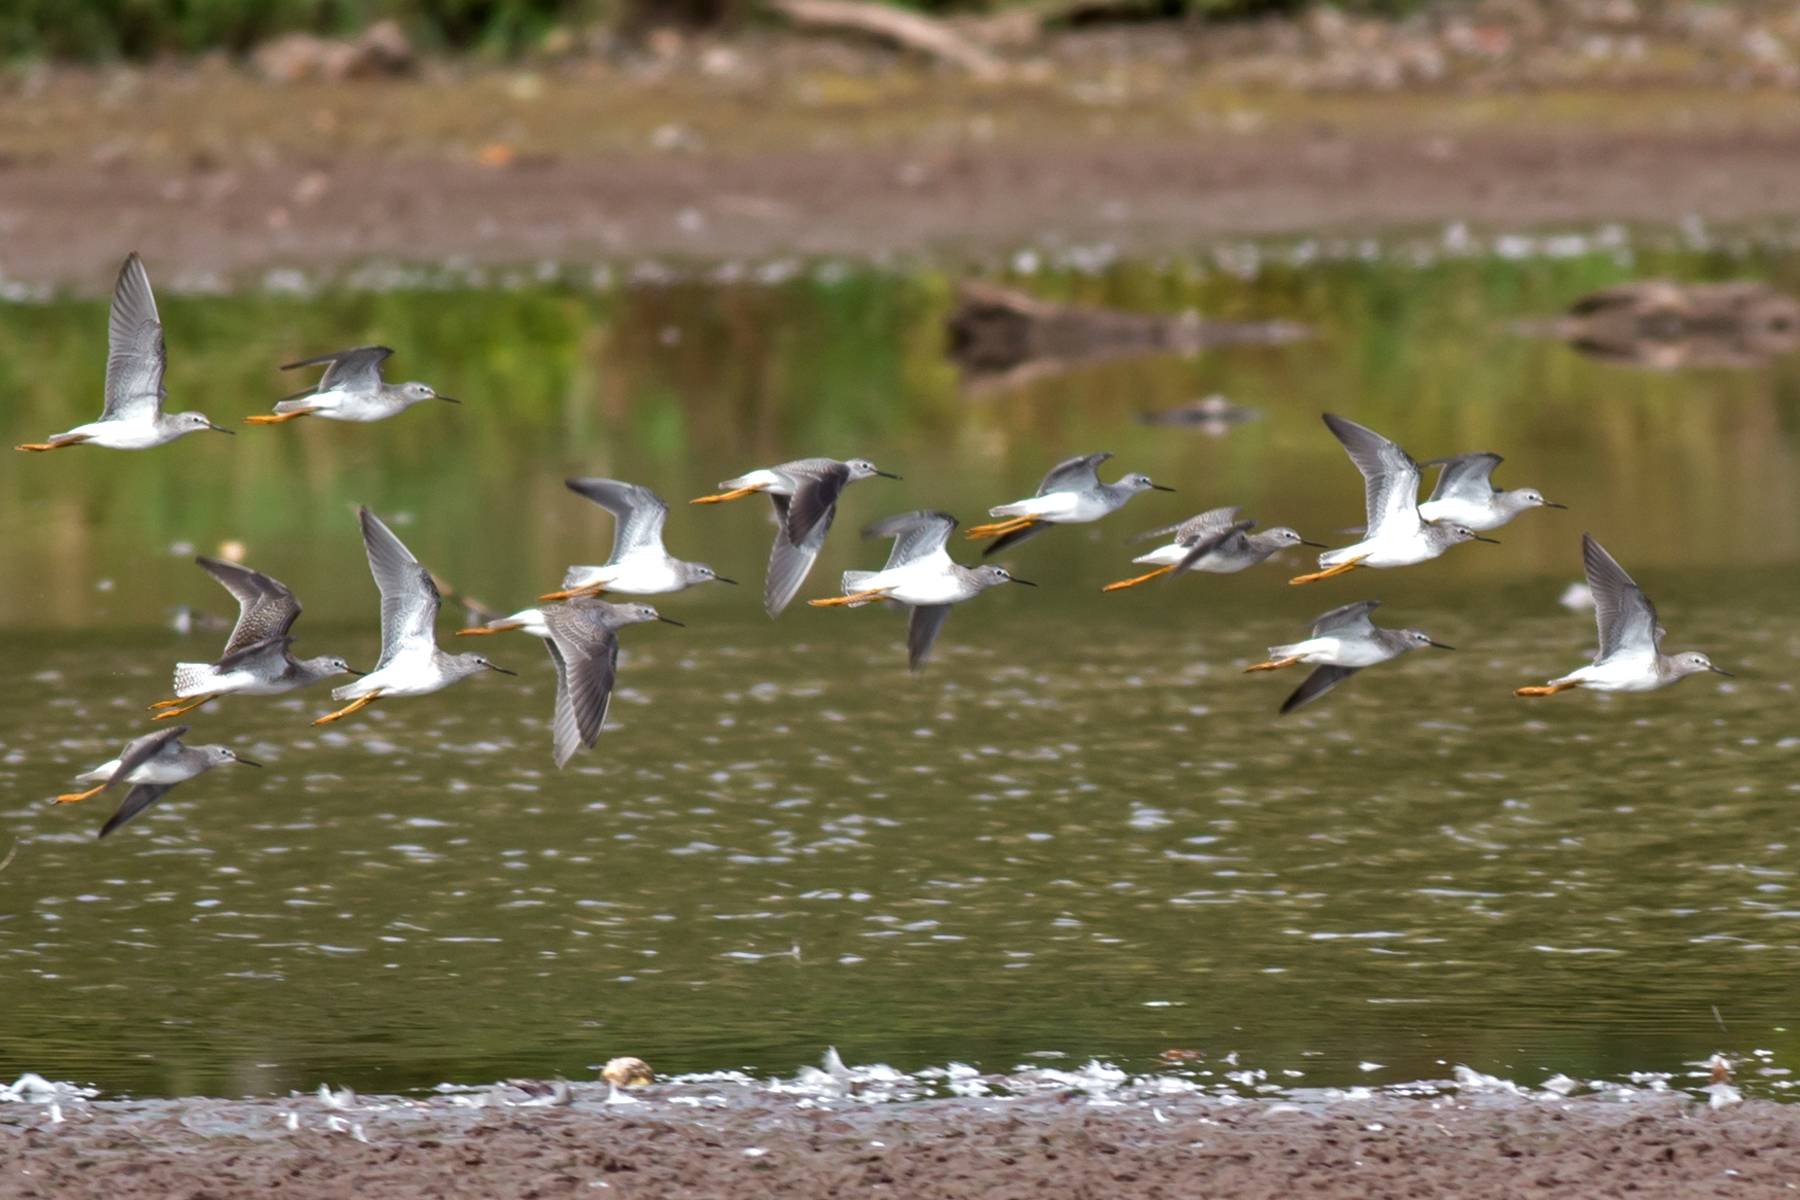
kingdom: Animalia
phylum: Chordata
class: Aves
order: Charadriiformes
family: Scolopacidae
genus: Tringa
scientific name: Tringa flavipes
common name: Lesser yellowlegs
